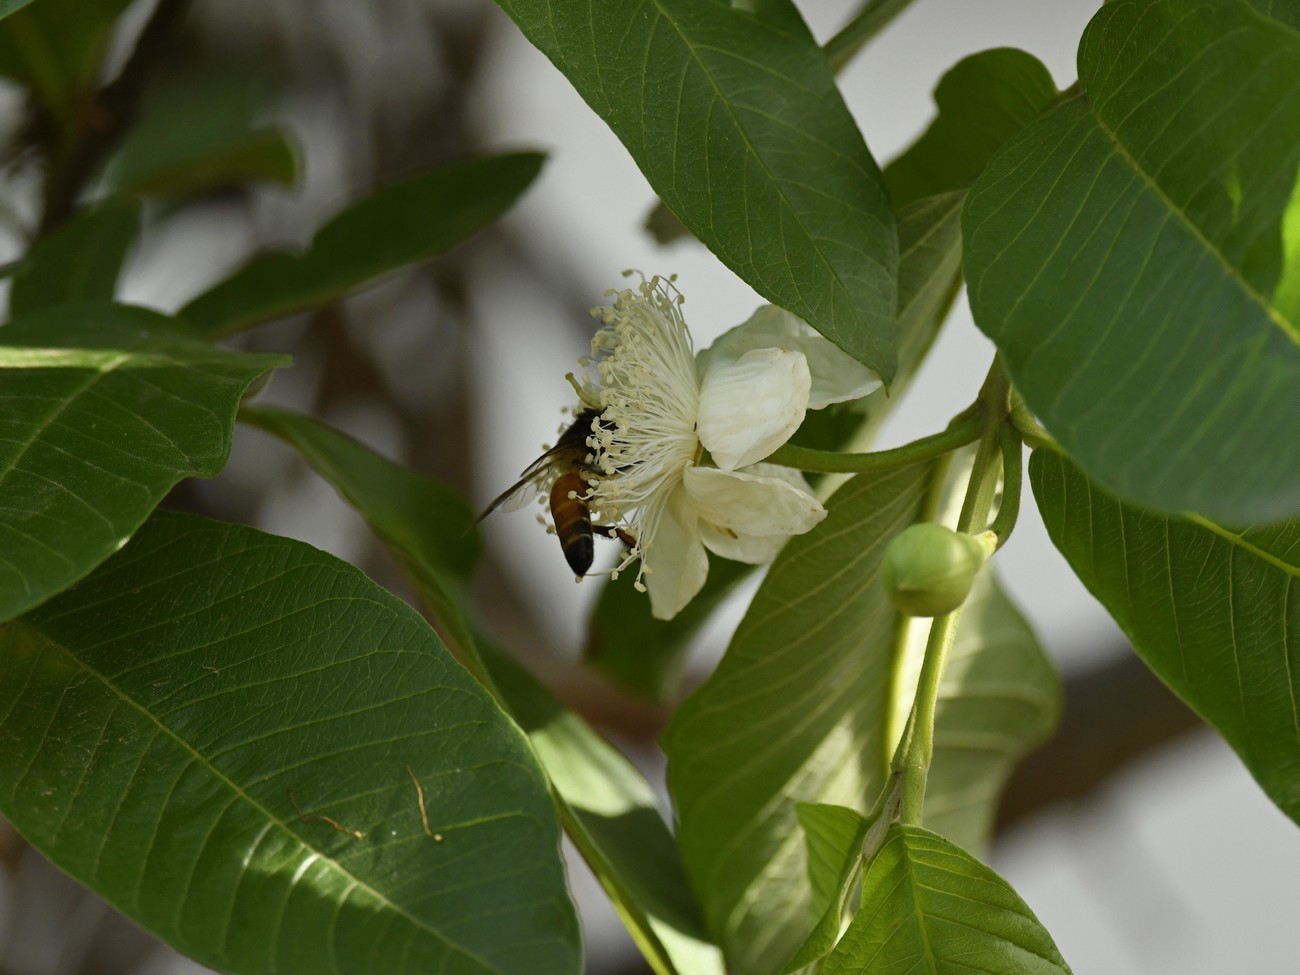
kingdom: Plantae
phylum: Tracheophyta
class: Magnoliopsida
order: Myrtales
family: Myrtaceae
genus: Psidium
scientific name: Psidium guajava
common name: Guava
